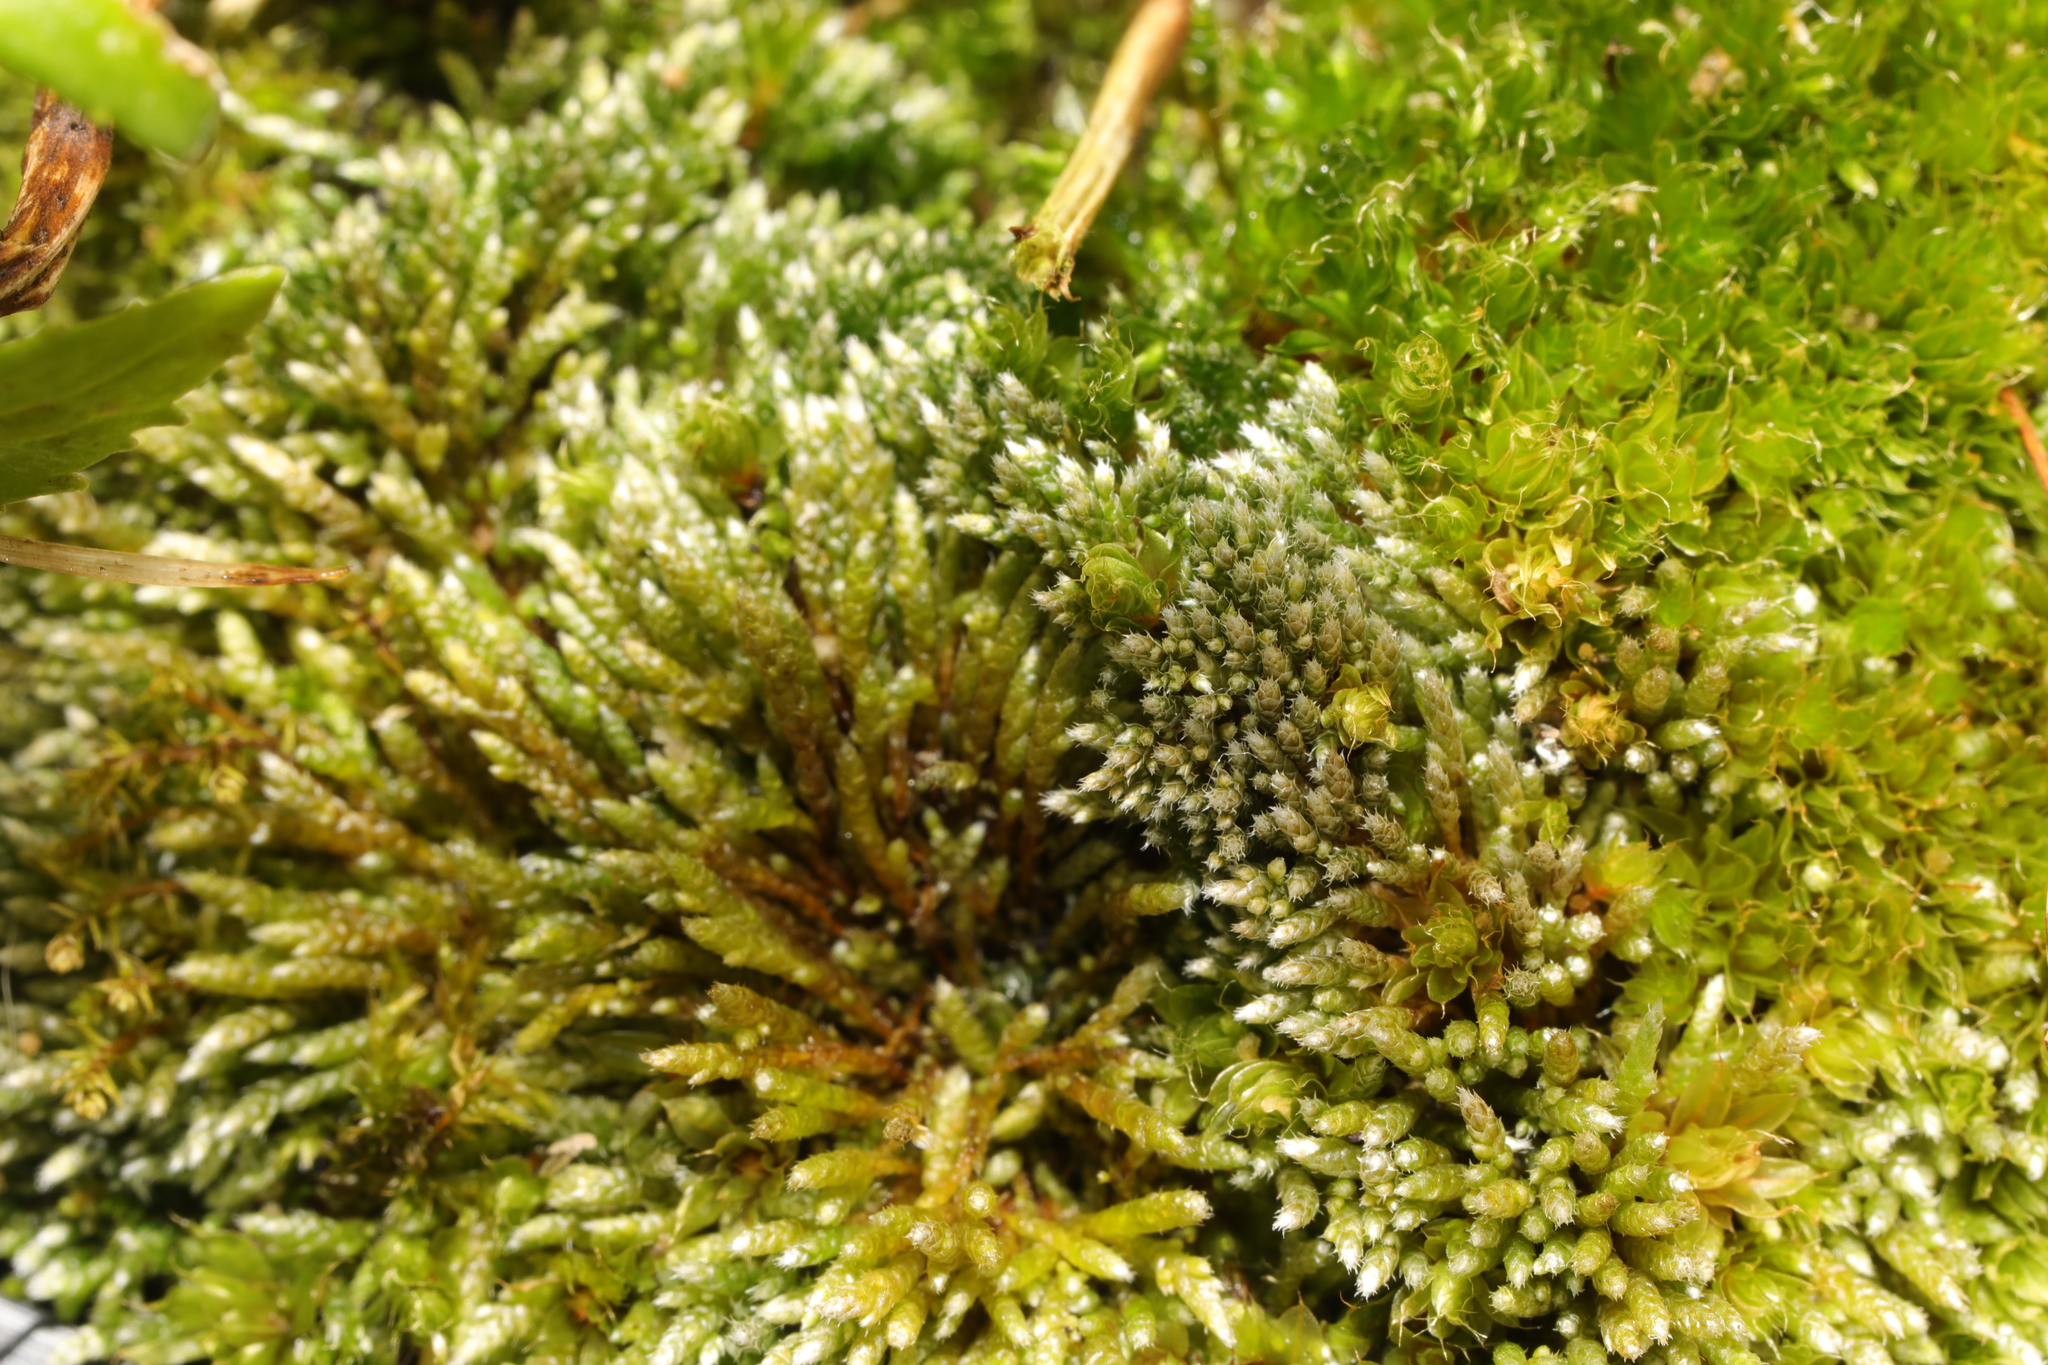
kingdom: Plantae
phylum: Bryophyta
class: Bryopsida
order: Bryales
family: Bryaceae
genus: Bryum
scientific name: Bryum argenteum
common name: Silver-moss
